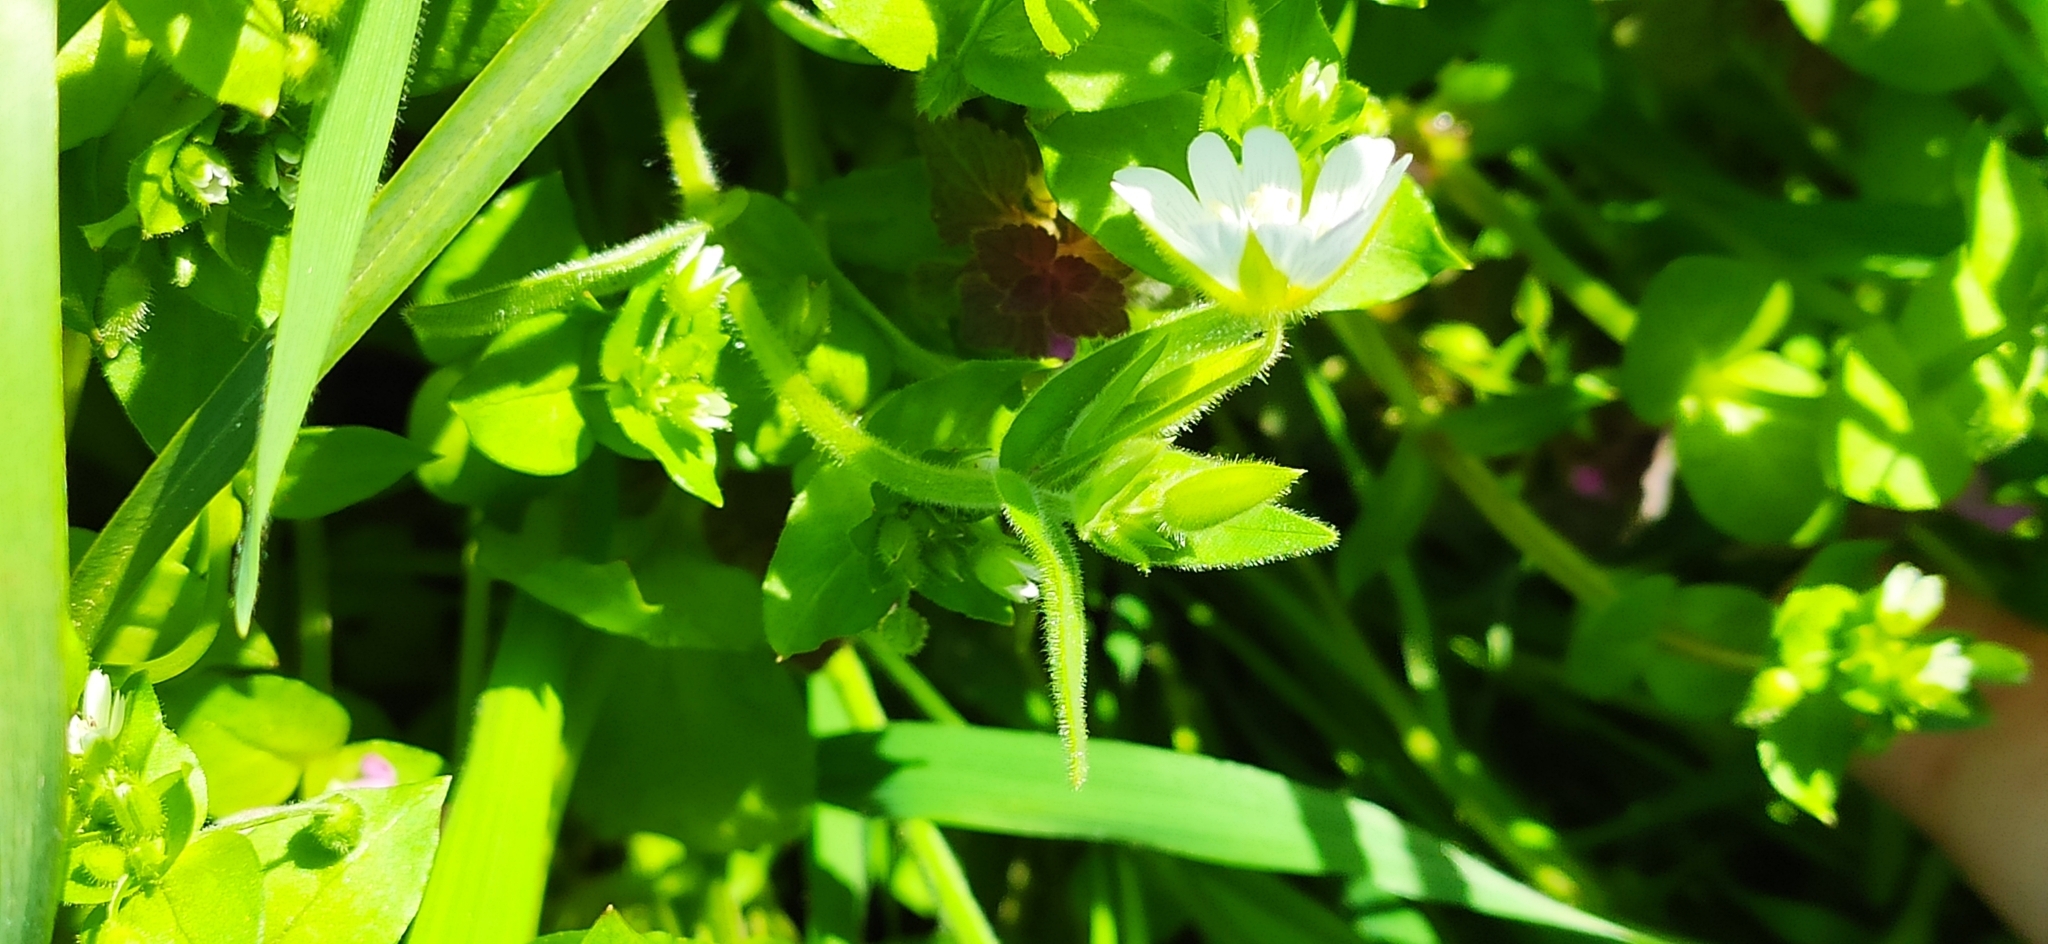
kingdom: Plantae
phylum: Tracheophyta
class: Magnoliopsida
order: Caryophyllales
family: Caryophyllaceae
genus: Cerastium
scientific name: Cerastium nemorale
